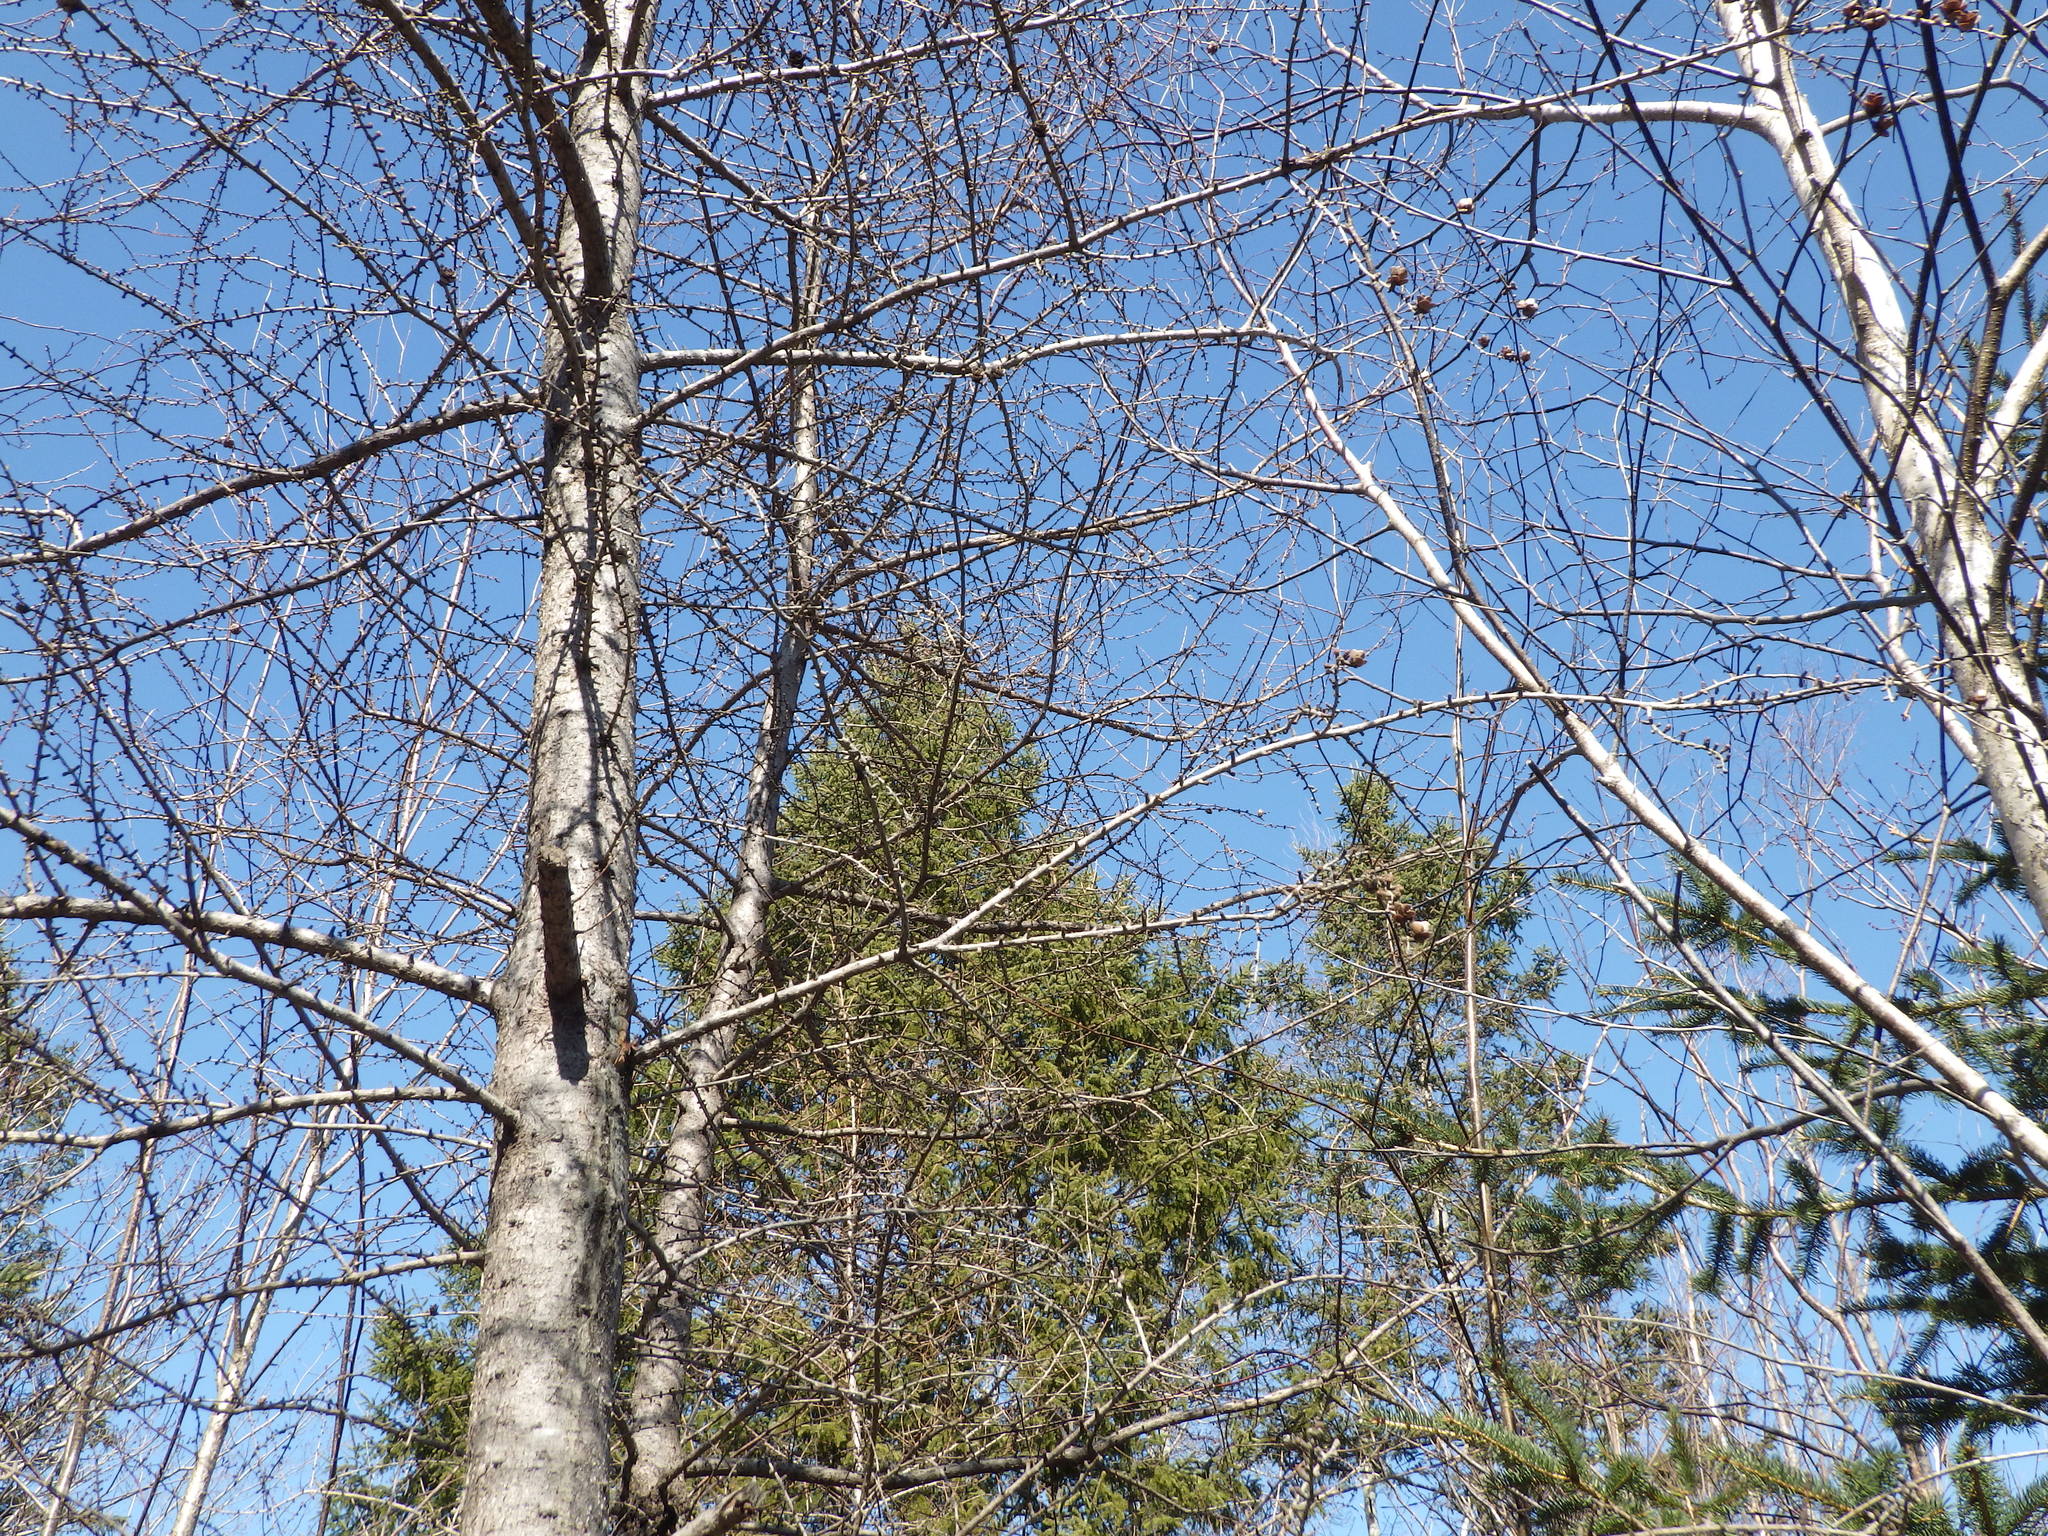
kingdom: Plantae
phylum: Tracheophyta
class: Pinopsida
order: Pinales
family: Pinaceae
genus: Larix
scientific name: Larix laricina
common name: American larch
